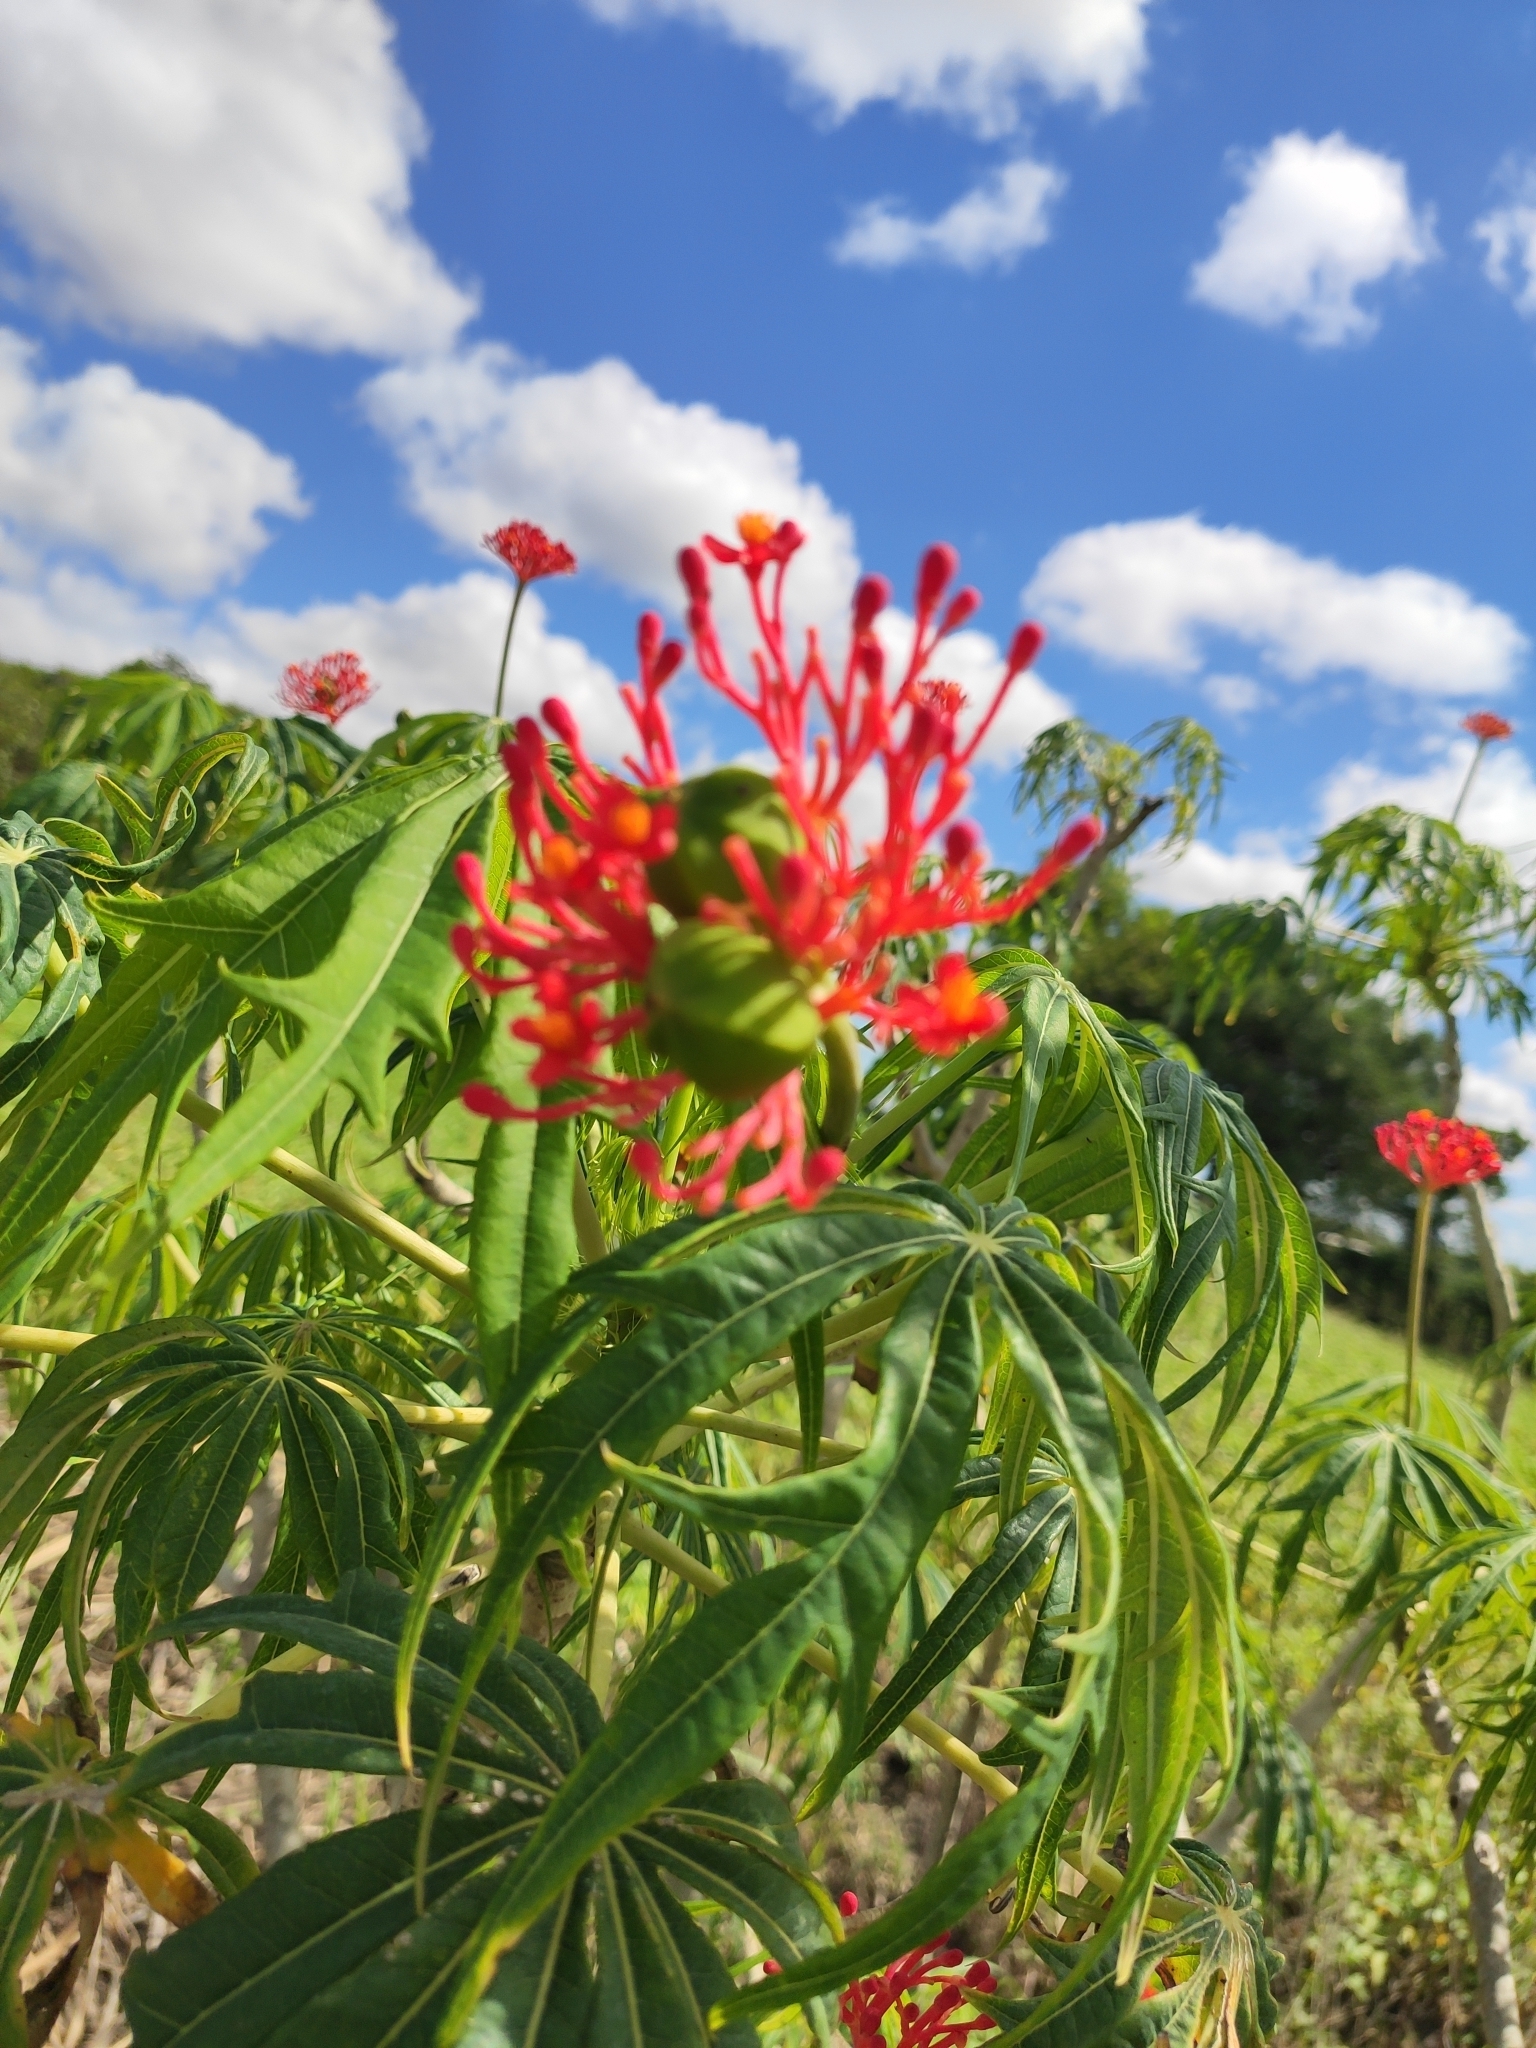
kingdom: Plantae
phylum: Tracheophyta
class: Magnoliopsida
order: Malpighiales
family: Euphorbiaceae
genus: Jatropha
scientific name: Jatropha multifida
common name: Coralbush
